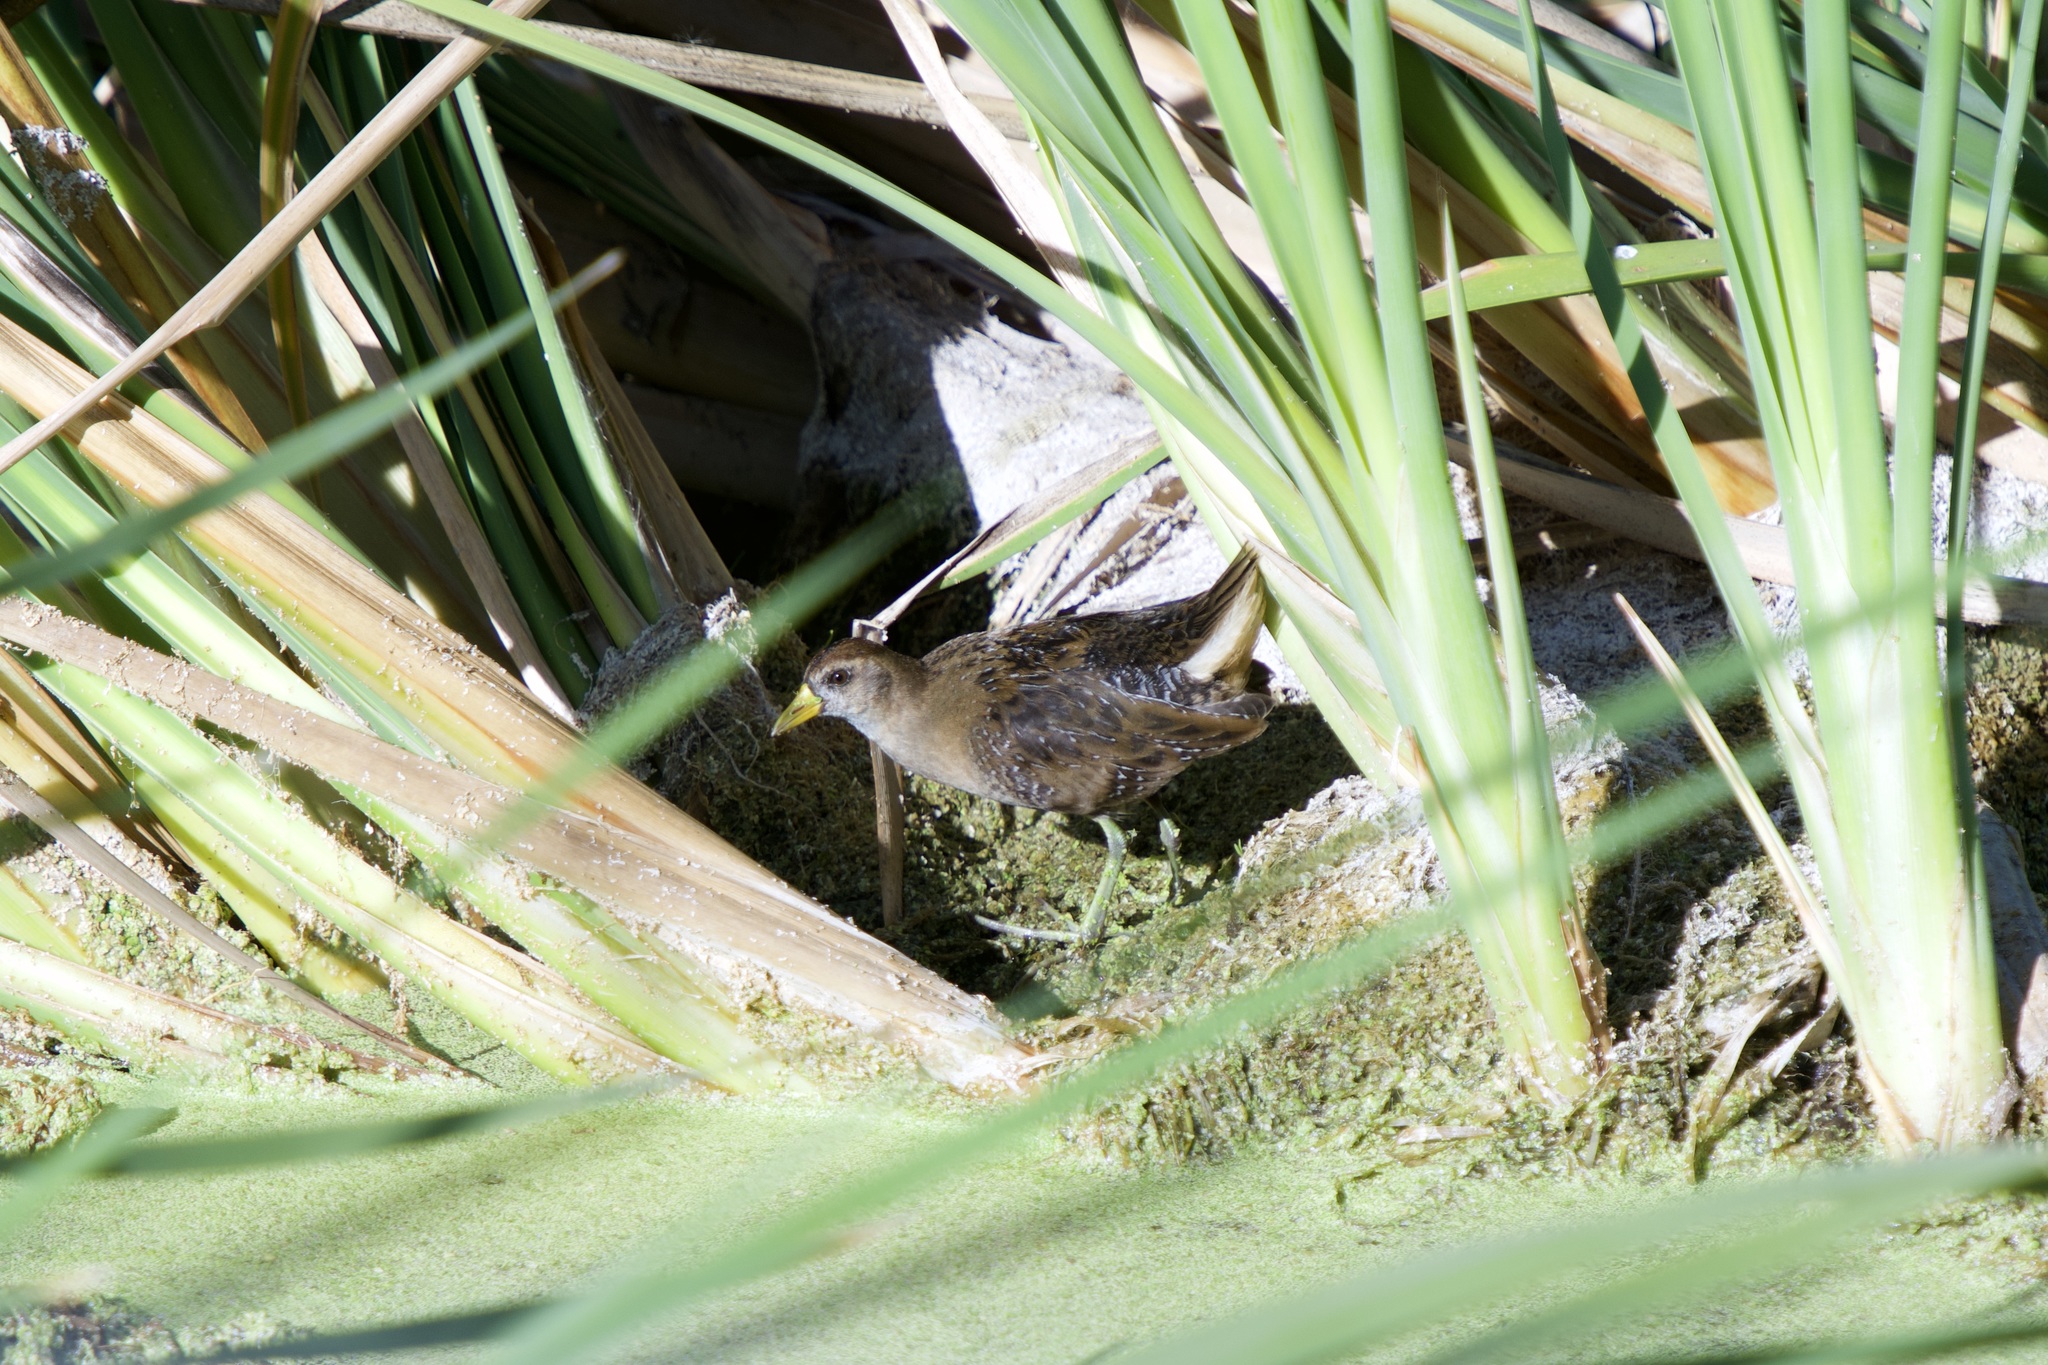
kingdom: Animalia
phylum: Chordata
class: Aves
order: Gruiformes
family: Rallidae
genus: Porzana
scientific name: Porzana carolina
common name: Sora
